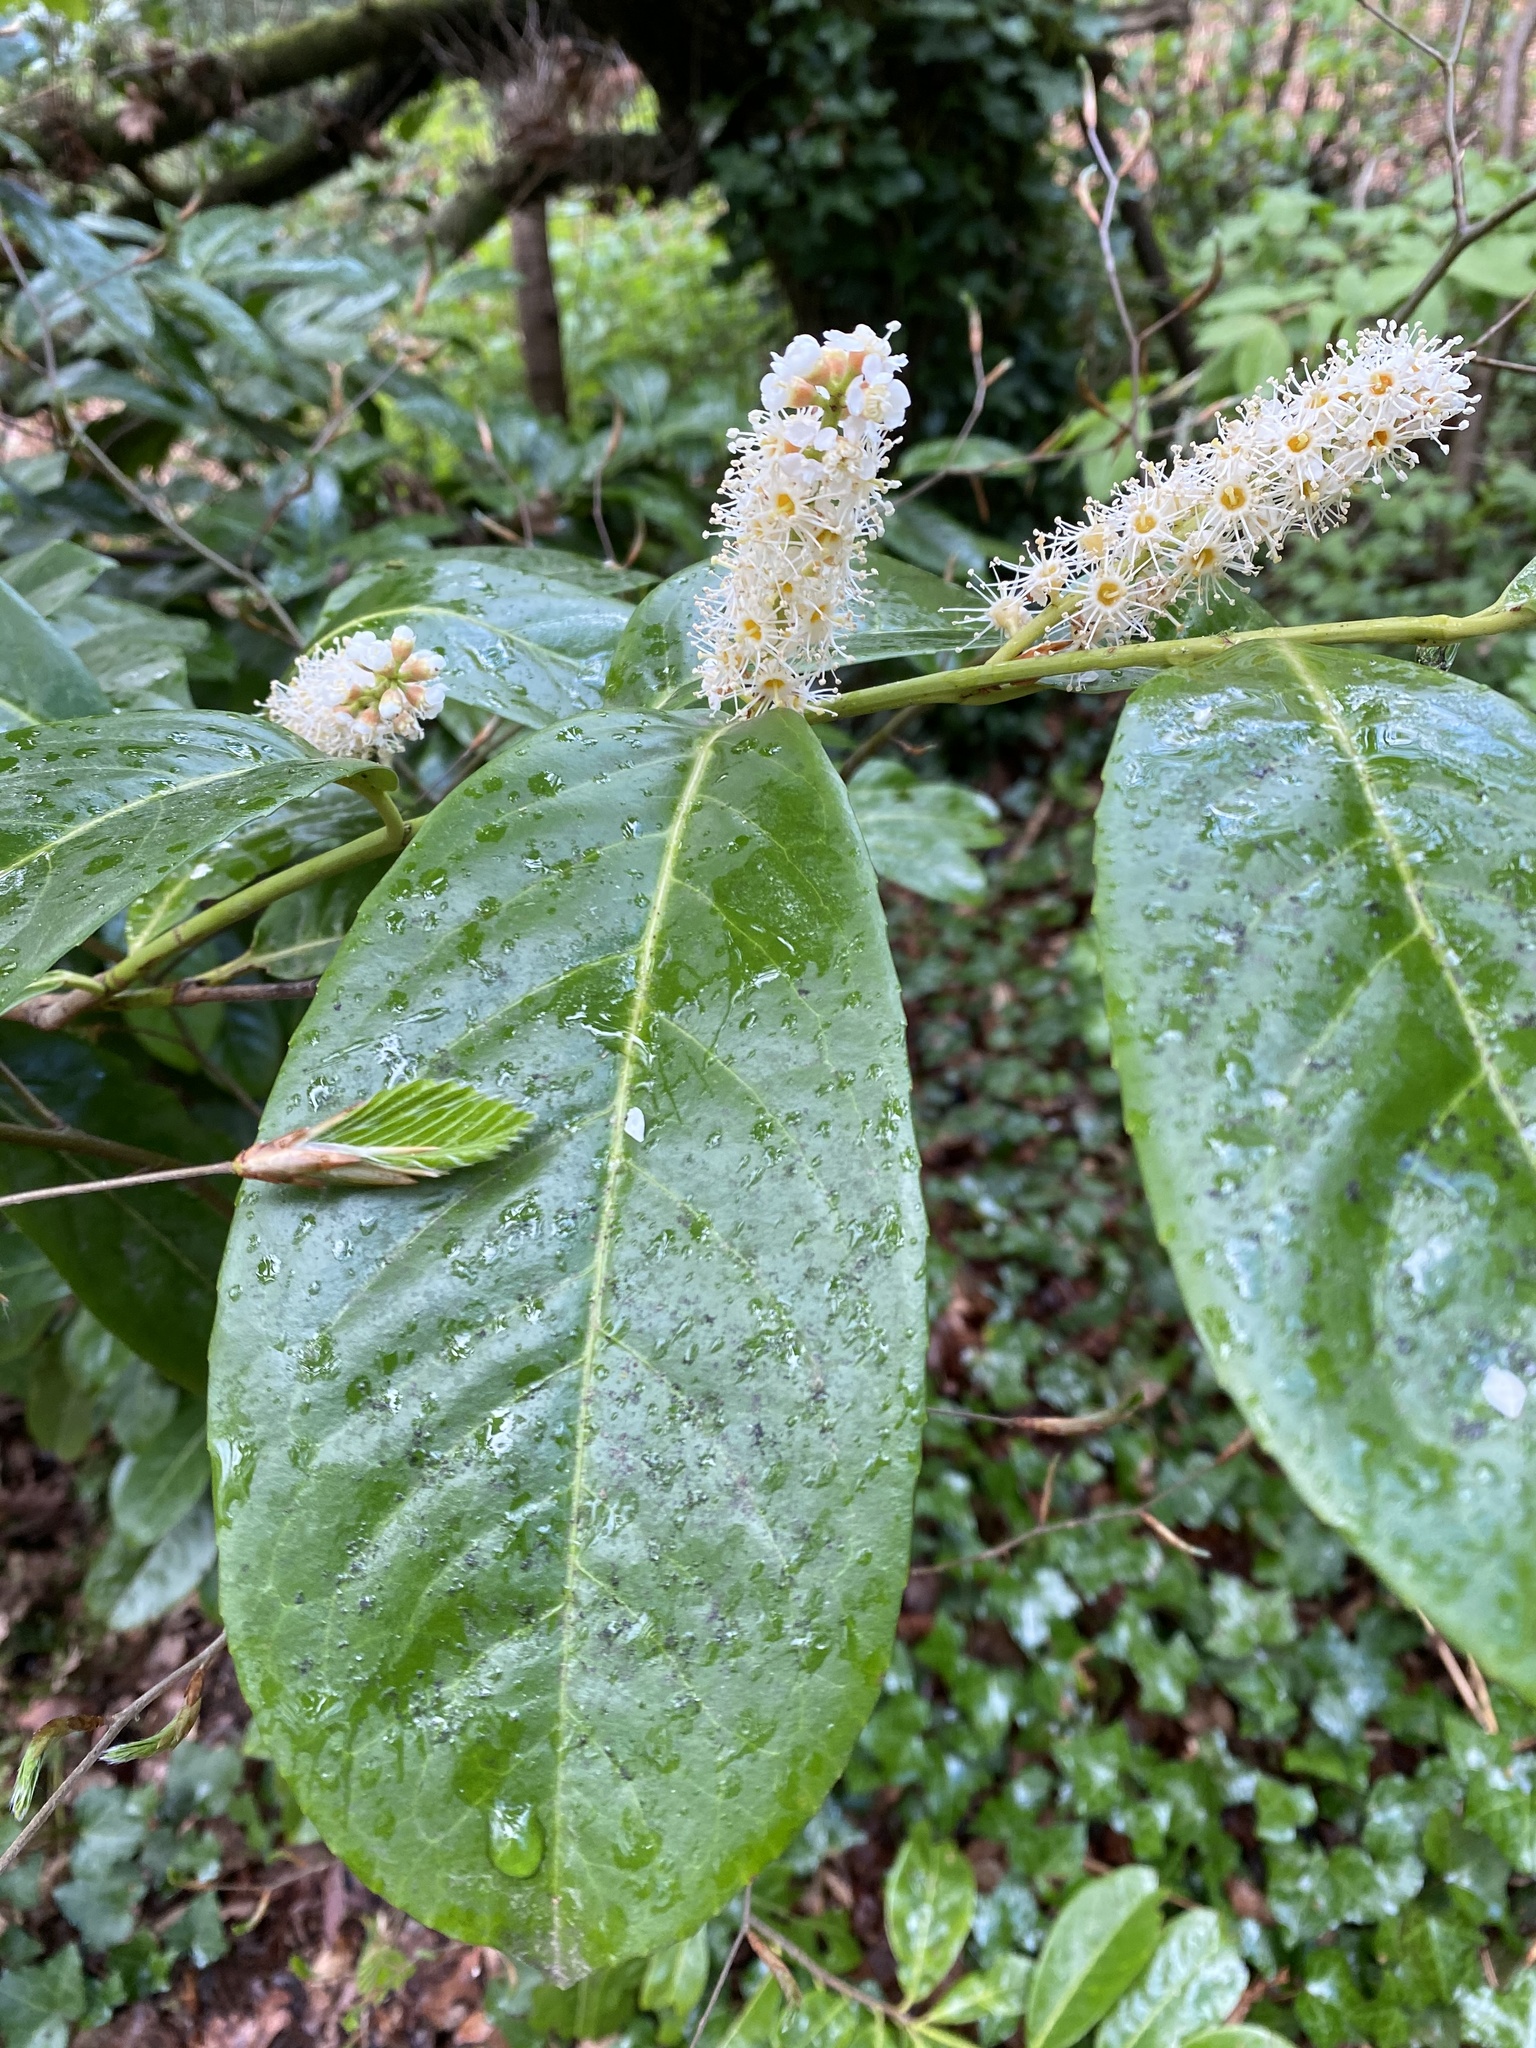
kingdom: Plantae
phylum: Tracheophyta
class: Magnoliopsida
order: Rosales
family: Rosaceae
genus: Prunus
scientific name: Prunus laurocerasus
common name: Cherry laurel
